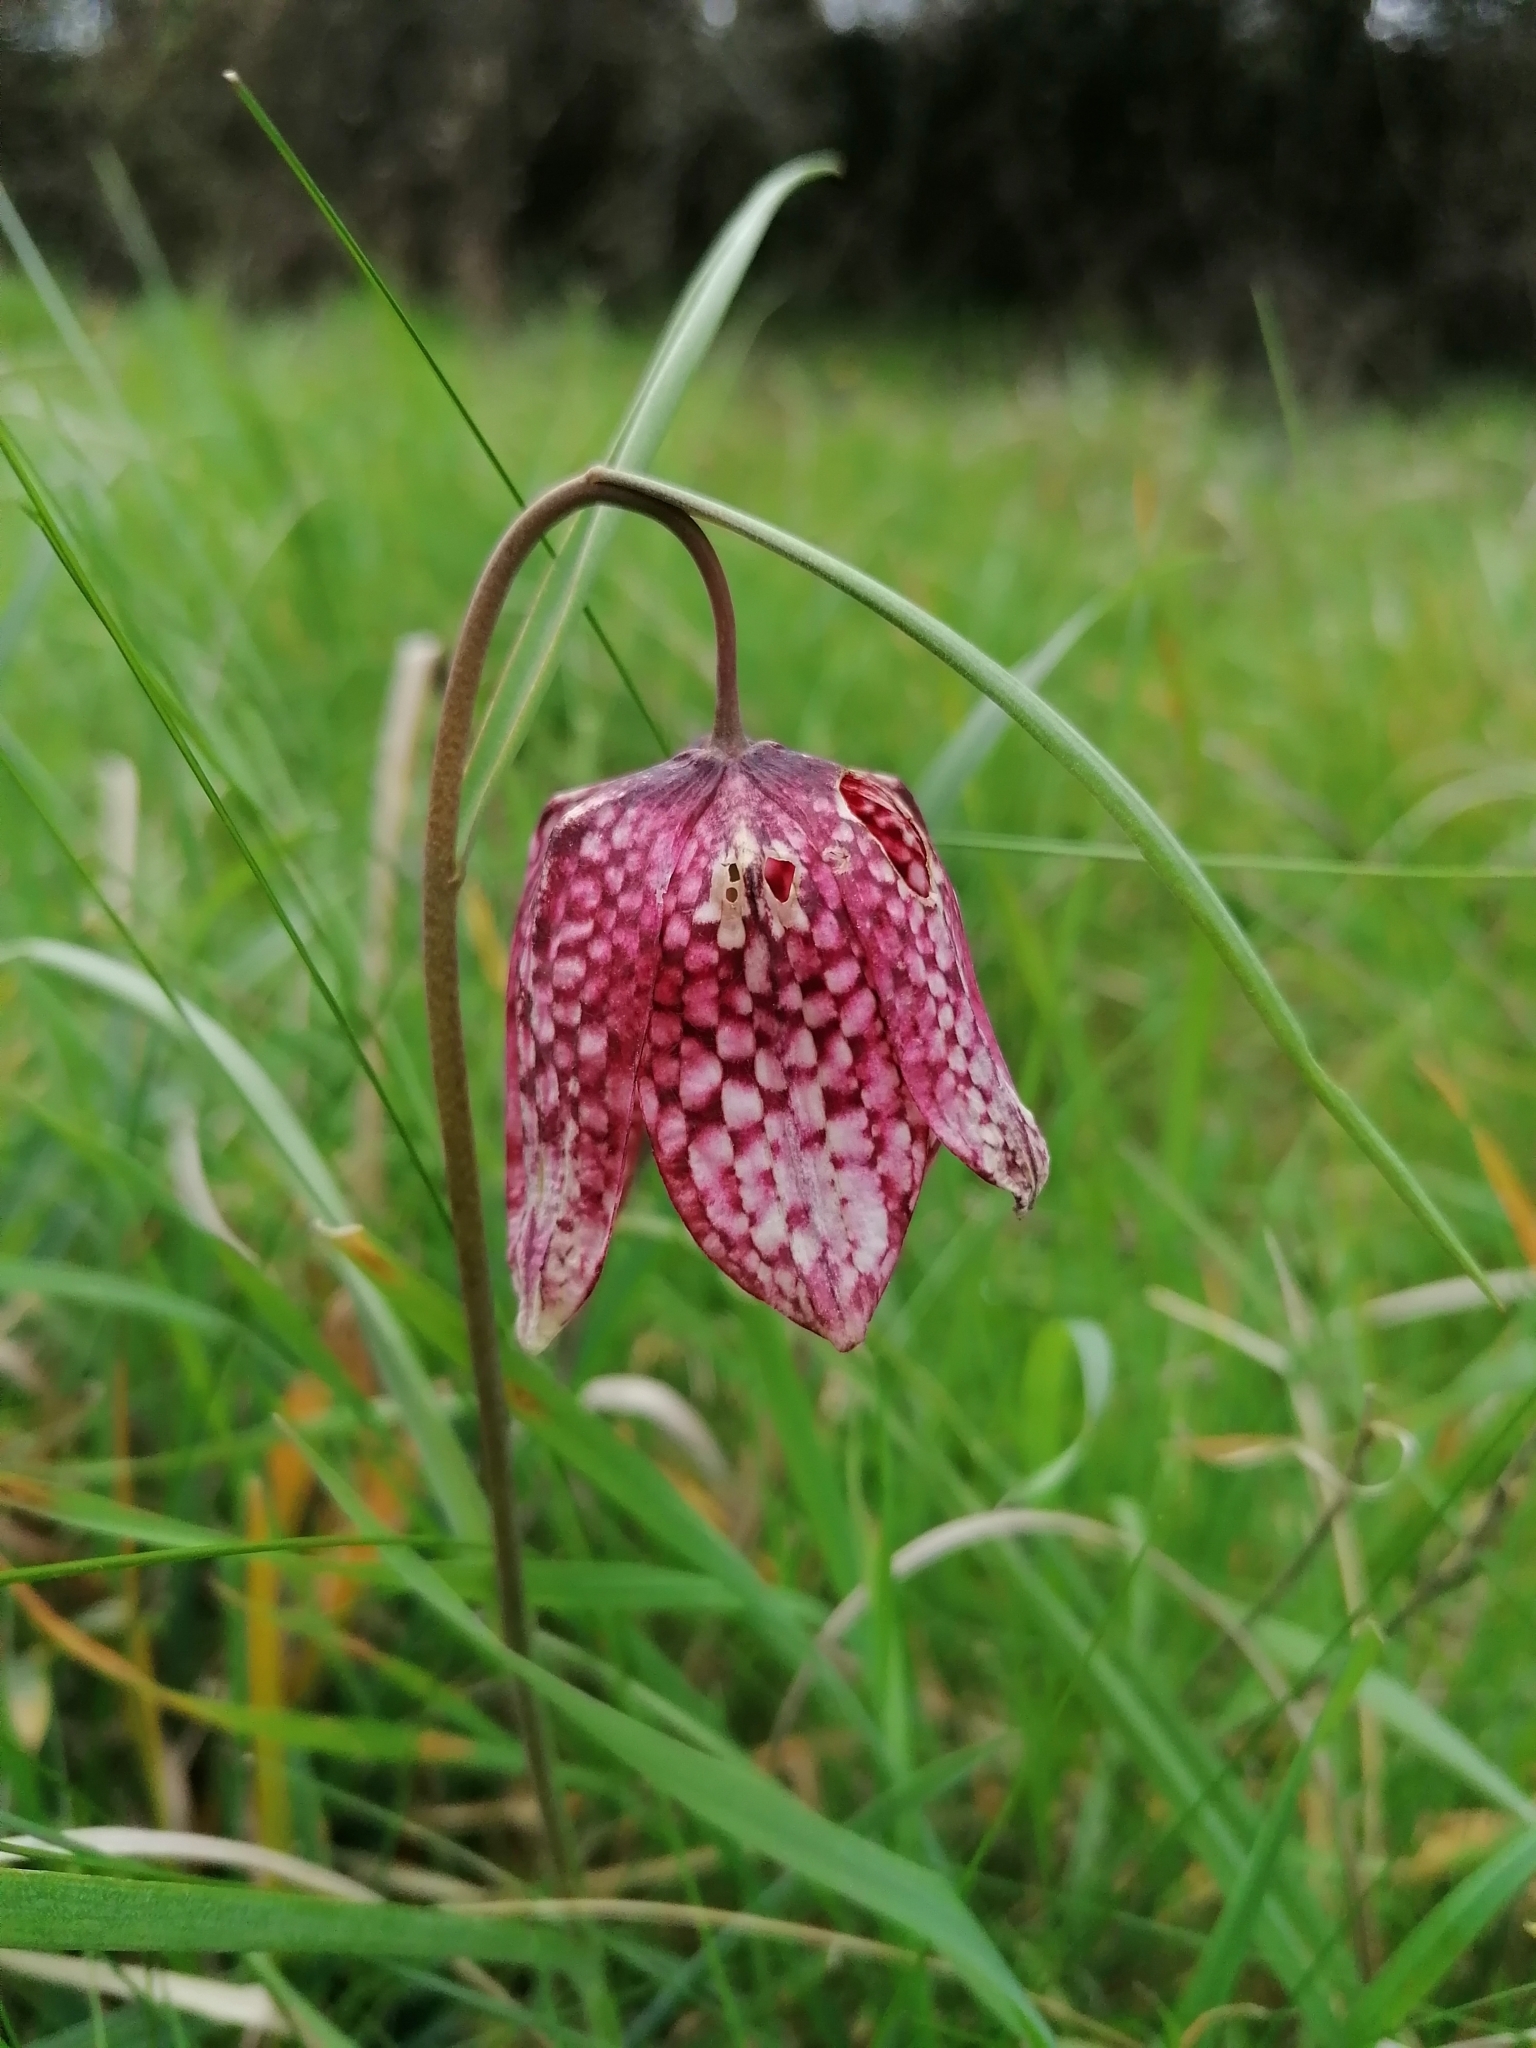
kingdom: Plantae
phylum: Tracheophyta
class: Liliopsida
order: Liliales
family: Liliaceae
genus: Fritillaria
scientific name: Fritillaria meleagris
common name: Fritillary
